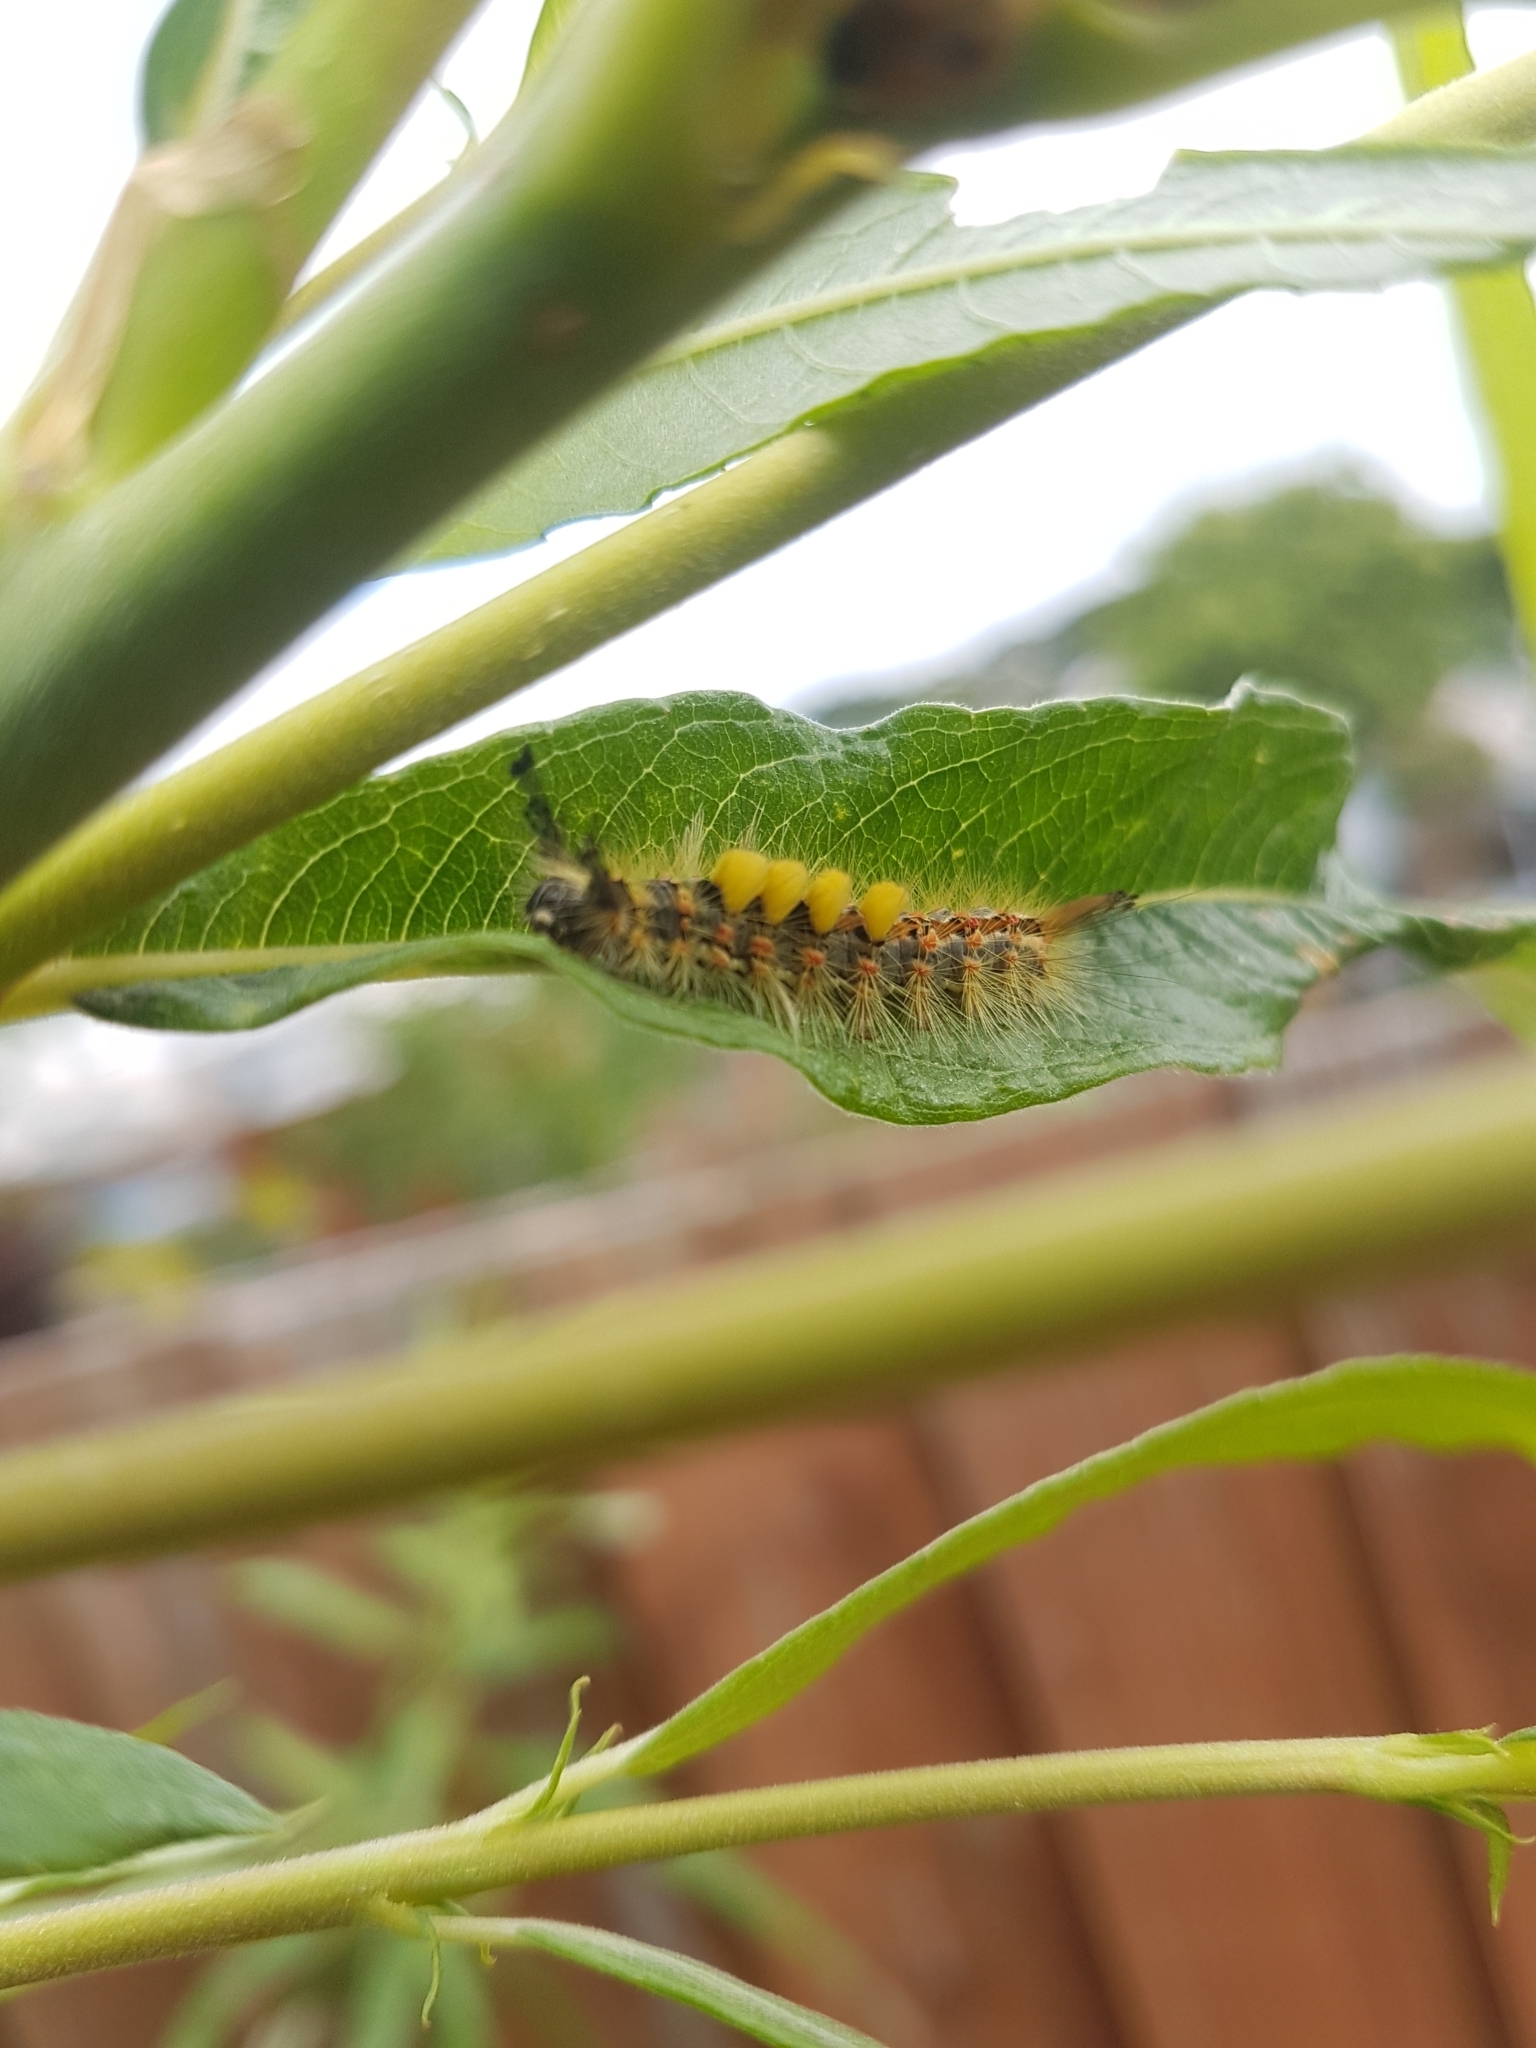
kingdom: Animalia
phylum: Arthropoda
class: Insecta
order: Lepidoptera
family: Erebidae
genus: Orgyia
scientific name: Orgyia antiqua
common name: Vapourer
